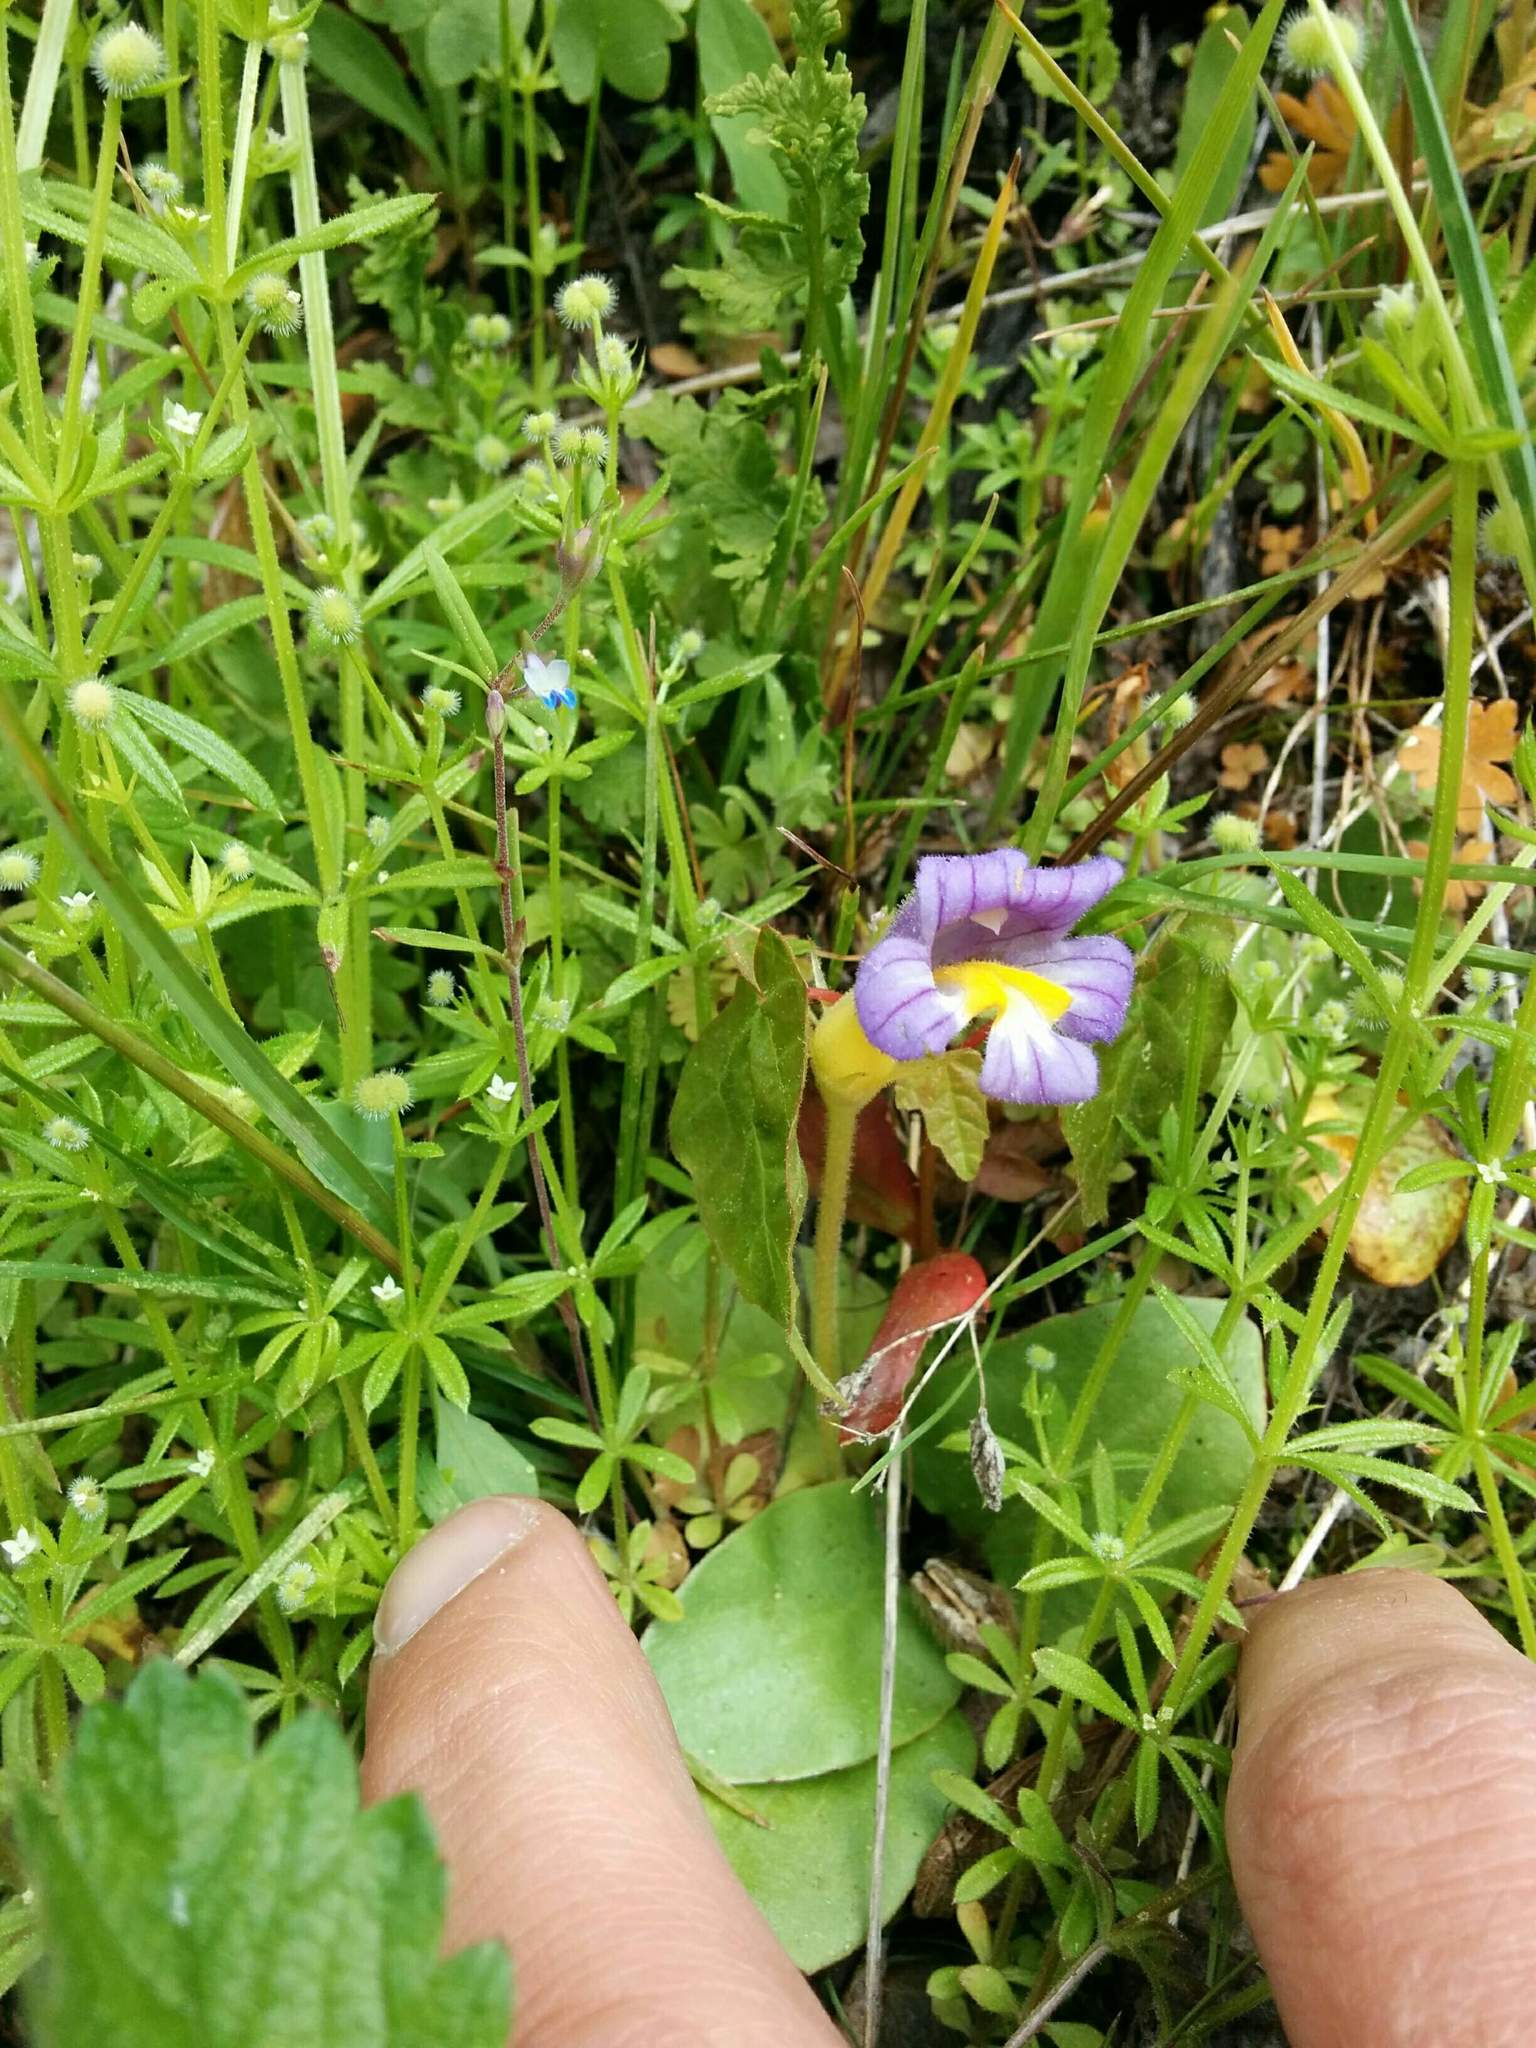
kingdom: Plantae
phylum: Tracheophyta
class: Magnoliopsida
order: Lamiales
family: Orobanchaceae
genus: Aphyllon
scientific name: Aphyllon uniflorum
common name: One-flowered broomrape
